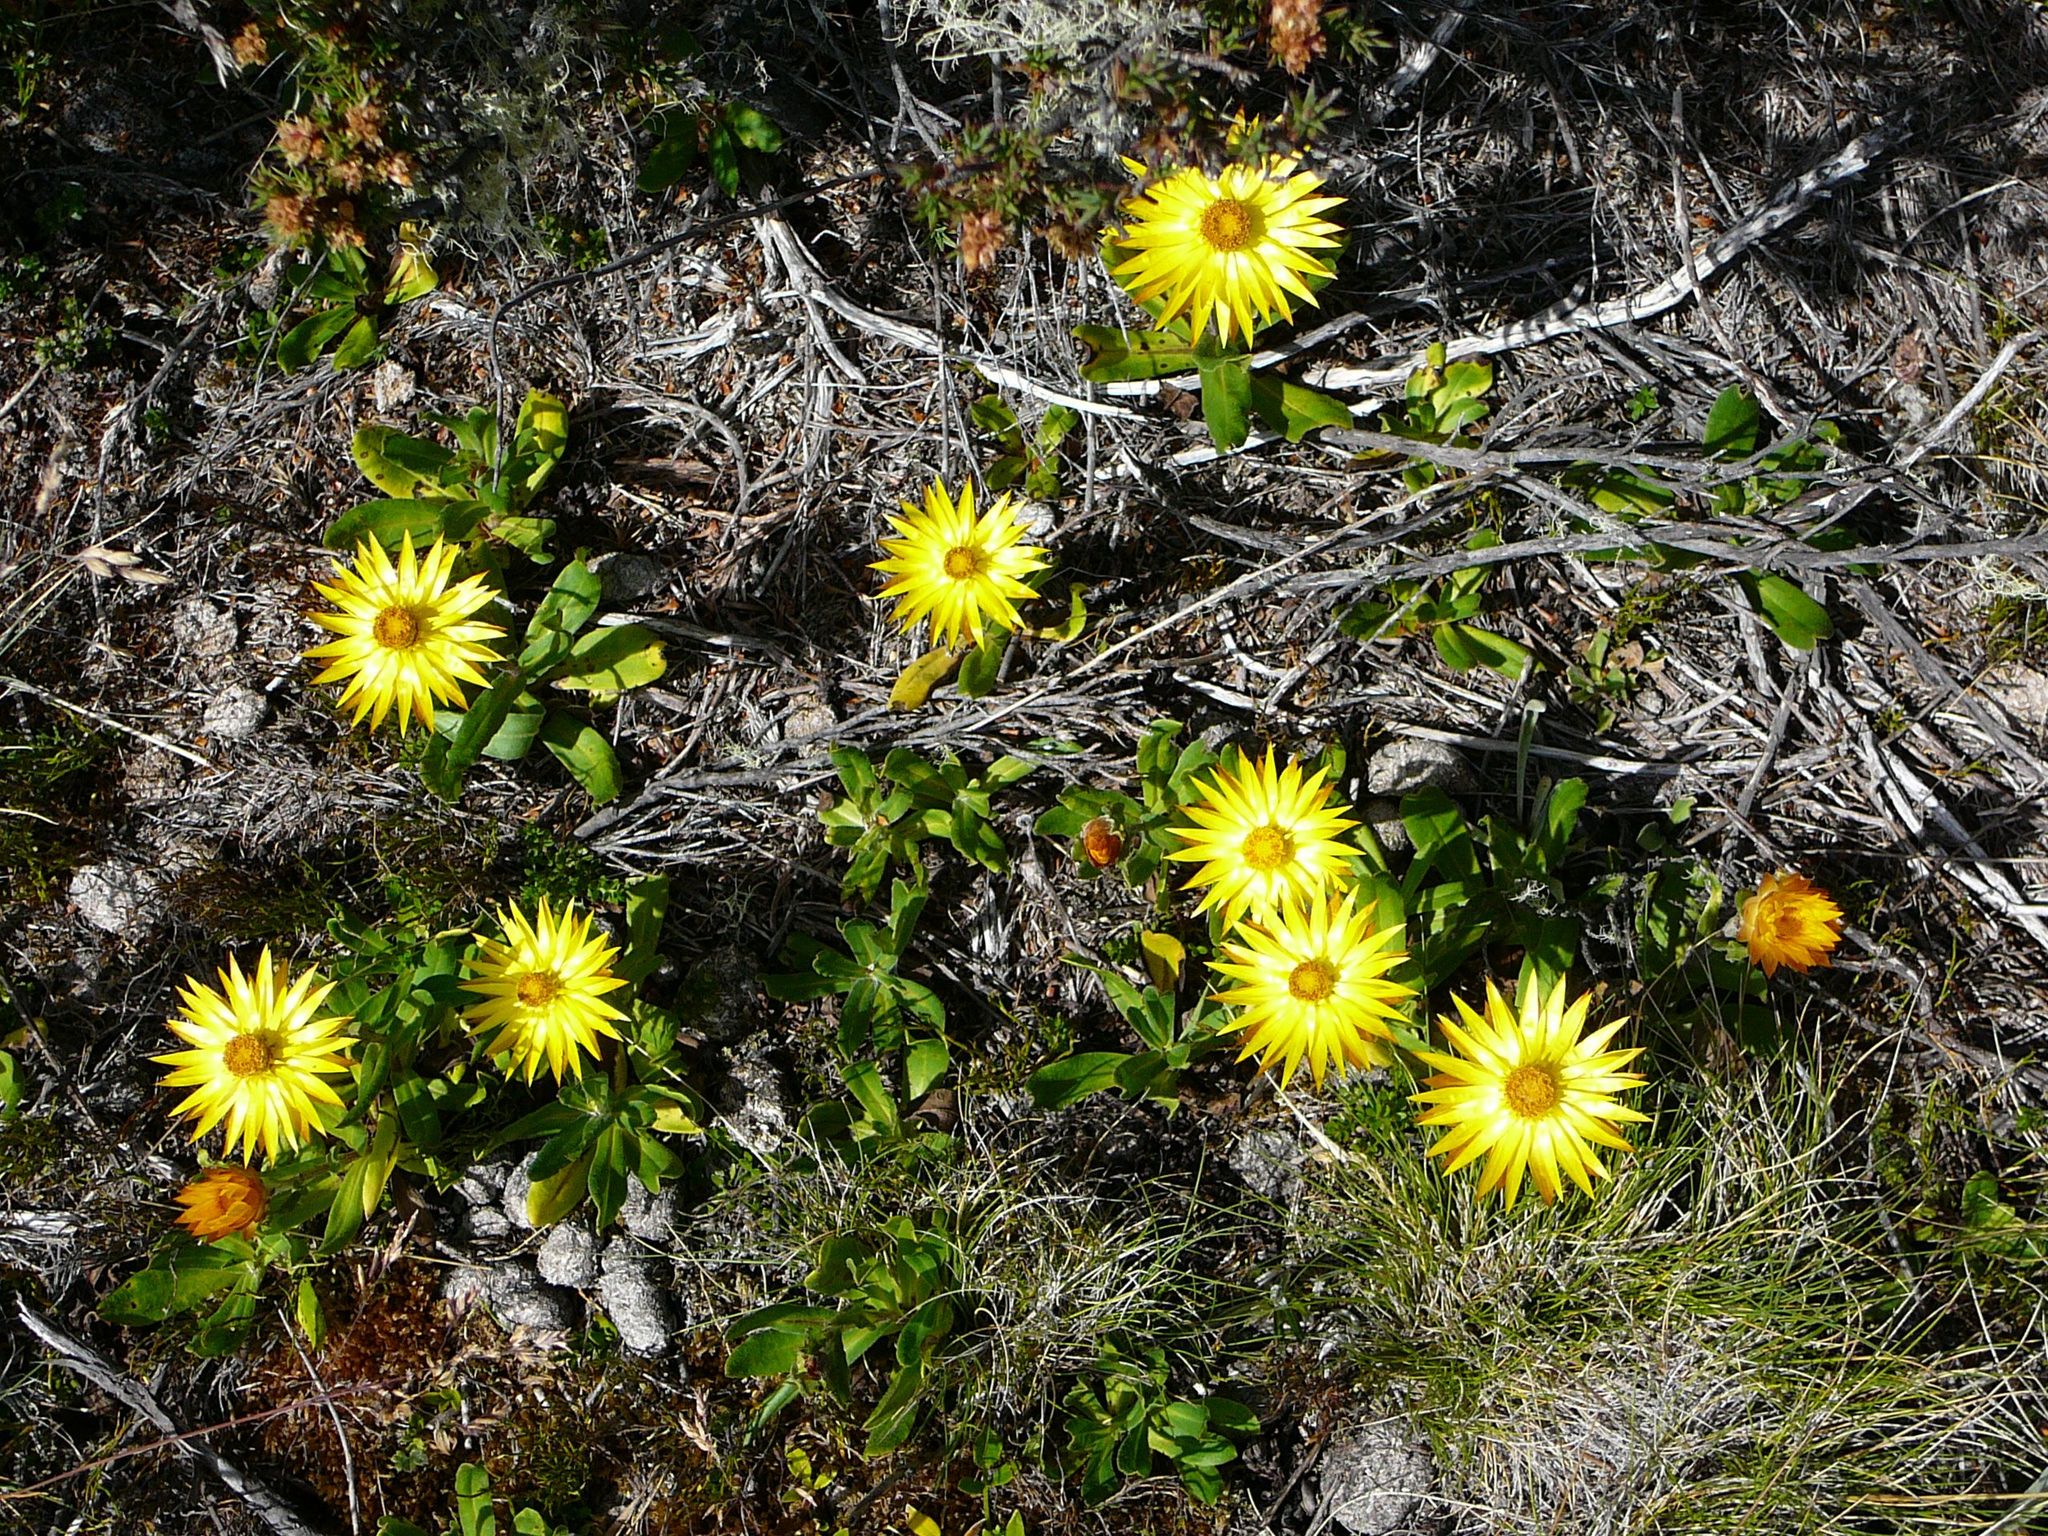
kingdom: Plantae
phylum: Tracheophyta
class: Magnoliopsida
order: Asterales
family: Asteraceae
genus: Xerochrysum
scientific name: Xerochrysum subundulatum
